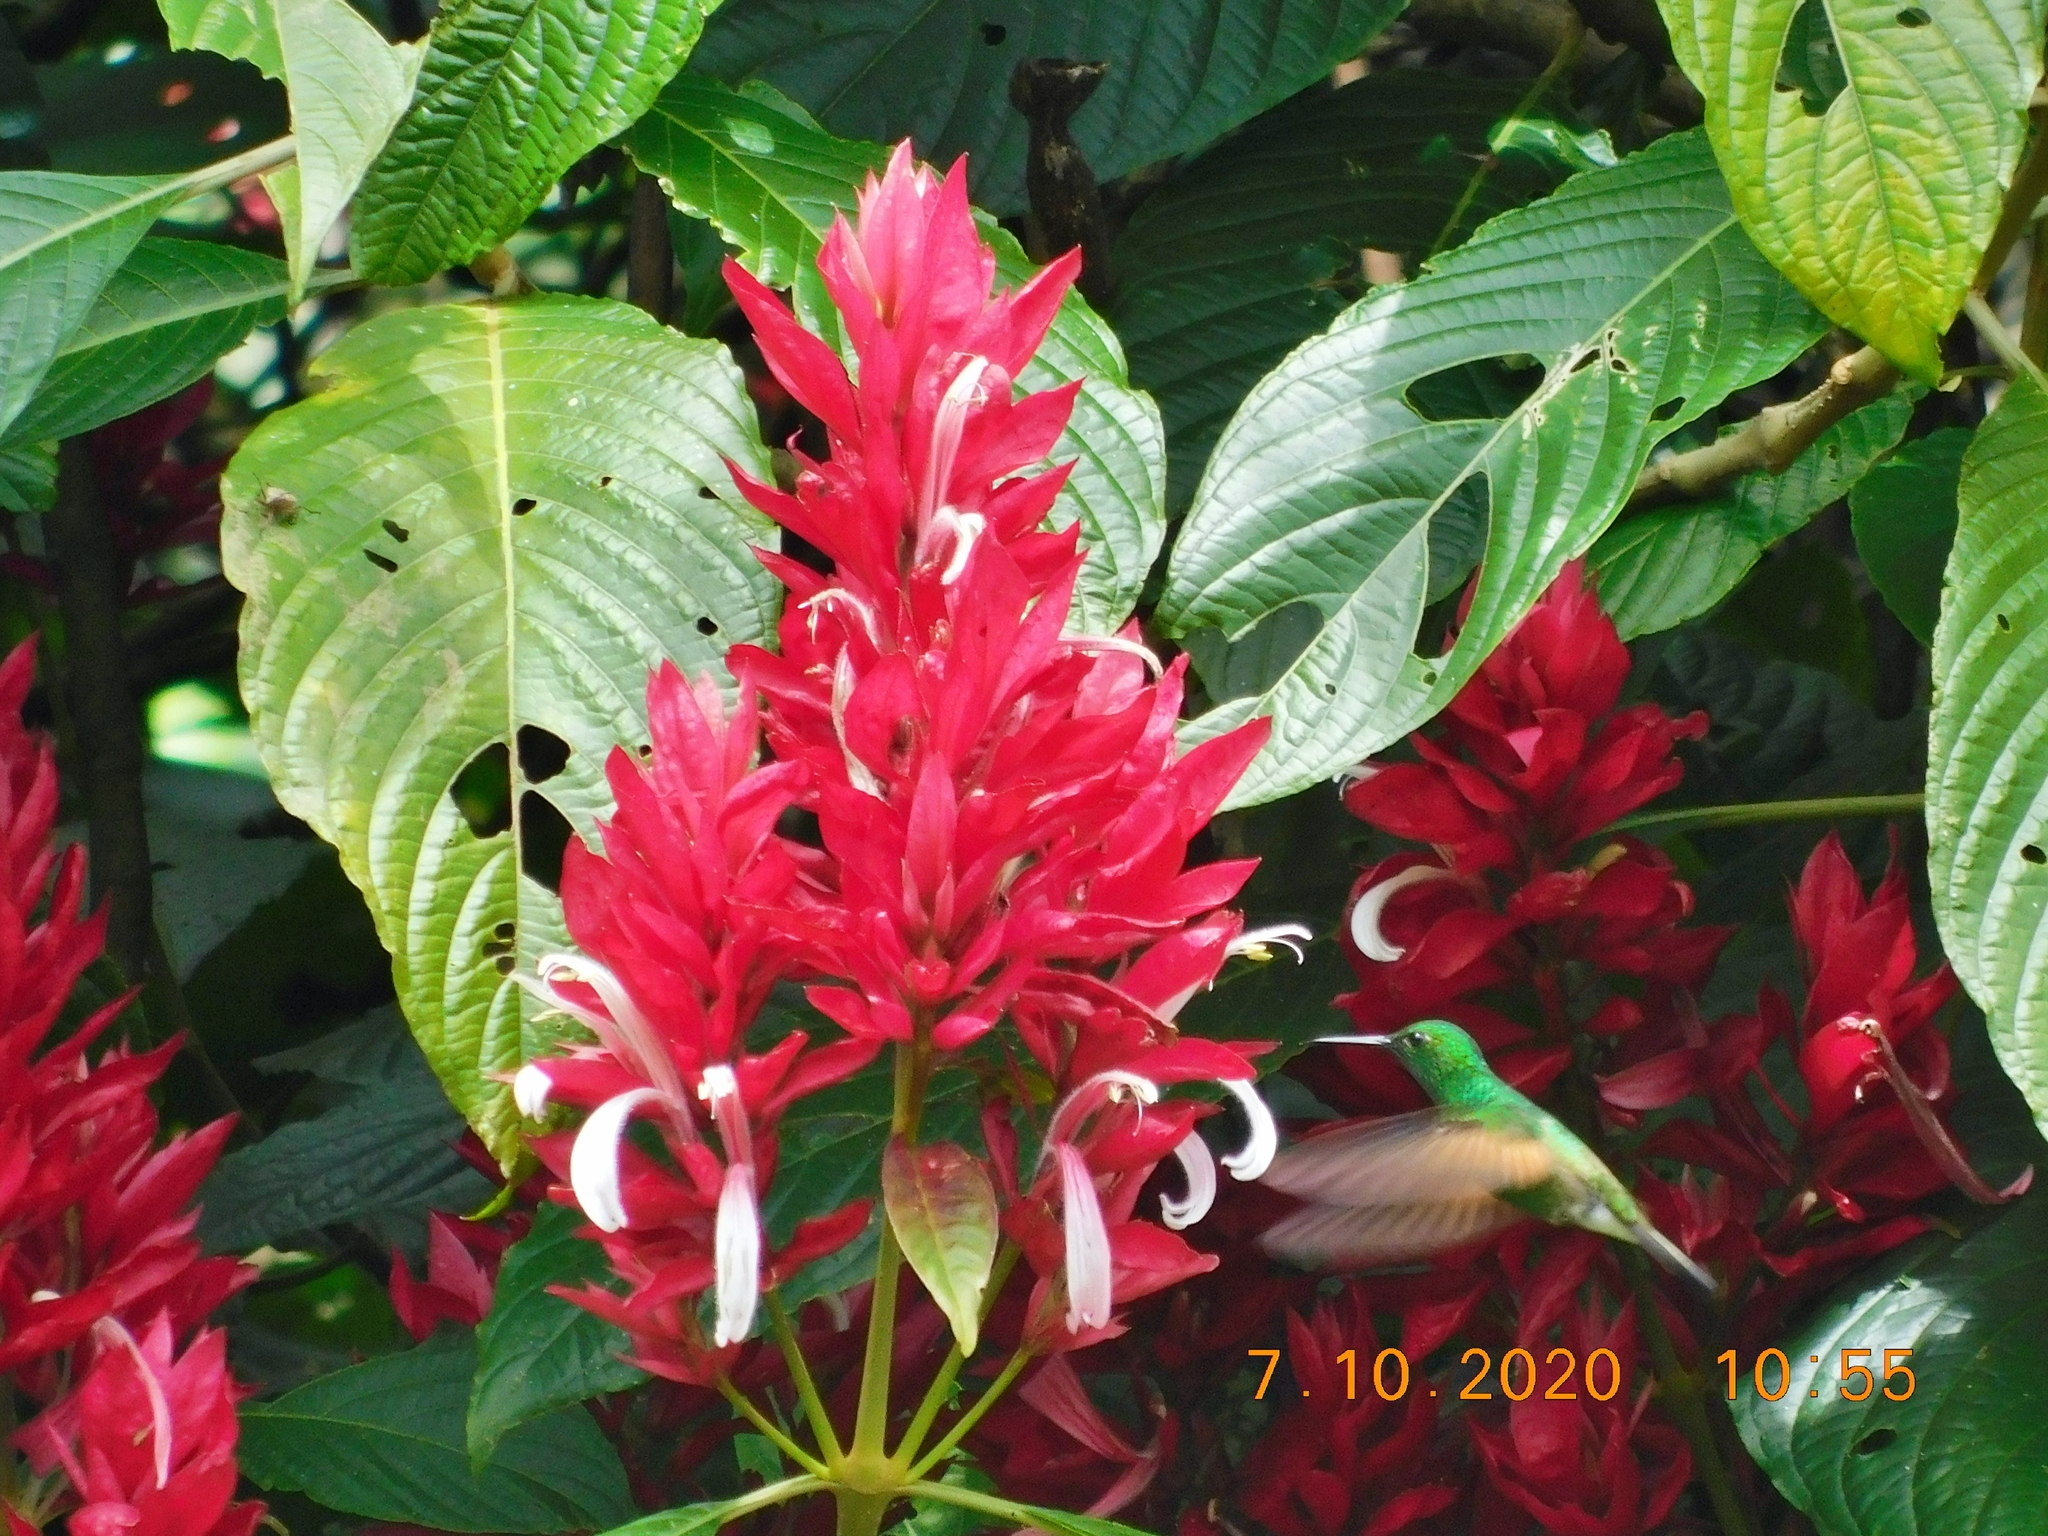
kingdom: Animalia
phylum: Chordata
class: Aves
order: Apodiformes
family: Trochilidae
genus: Eupherusa
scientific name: Eupherusa eximia
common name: Stripe-tailed hummingbird
